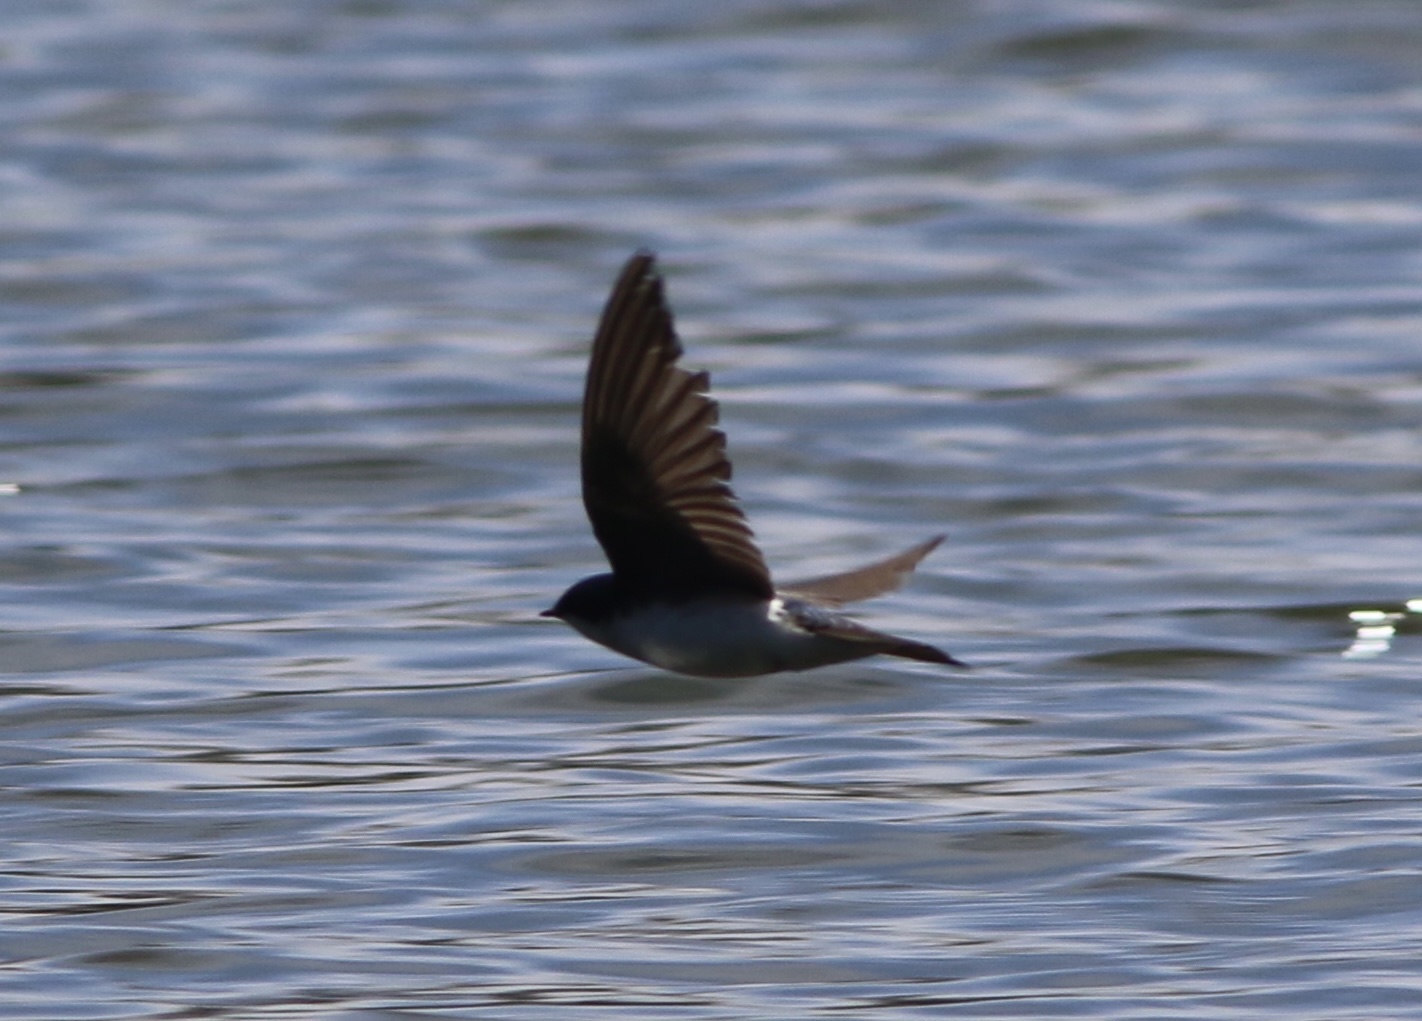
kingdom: Animalia
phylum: Chordata
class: Aves
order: Passeriformes
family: Hirundinidae
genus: Tachycineta
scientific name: Tachycineta bicolor
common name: Tree swallow
